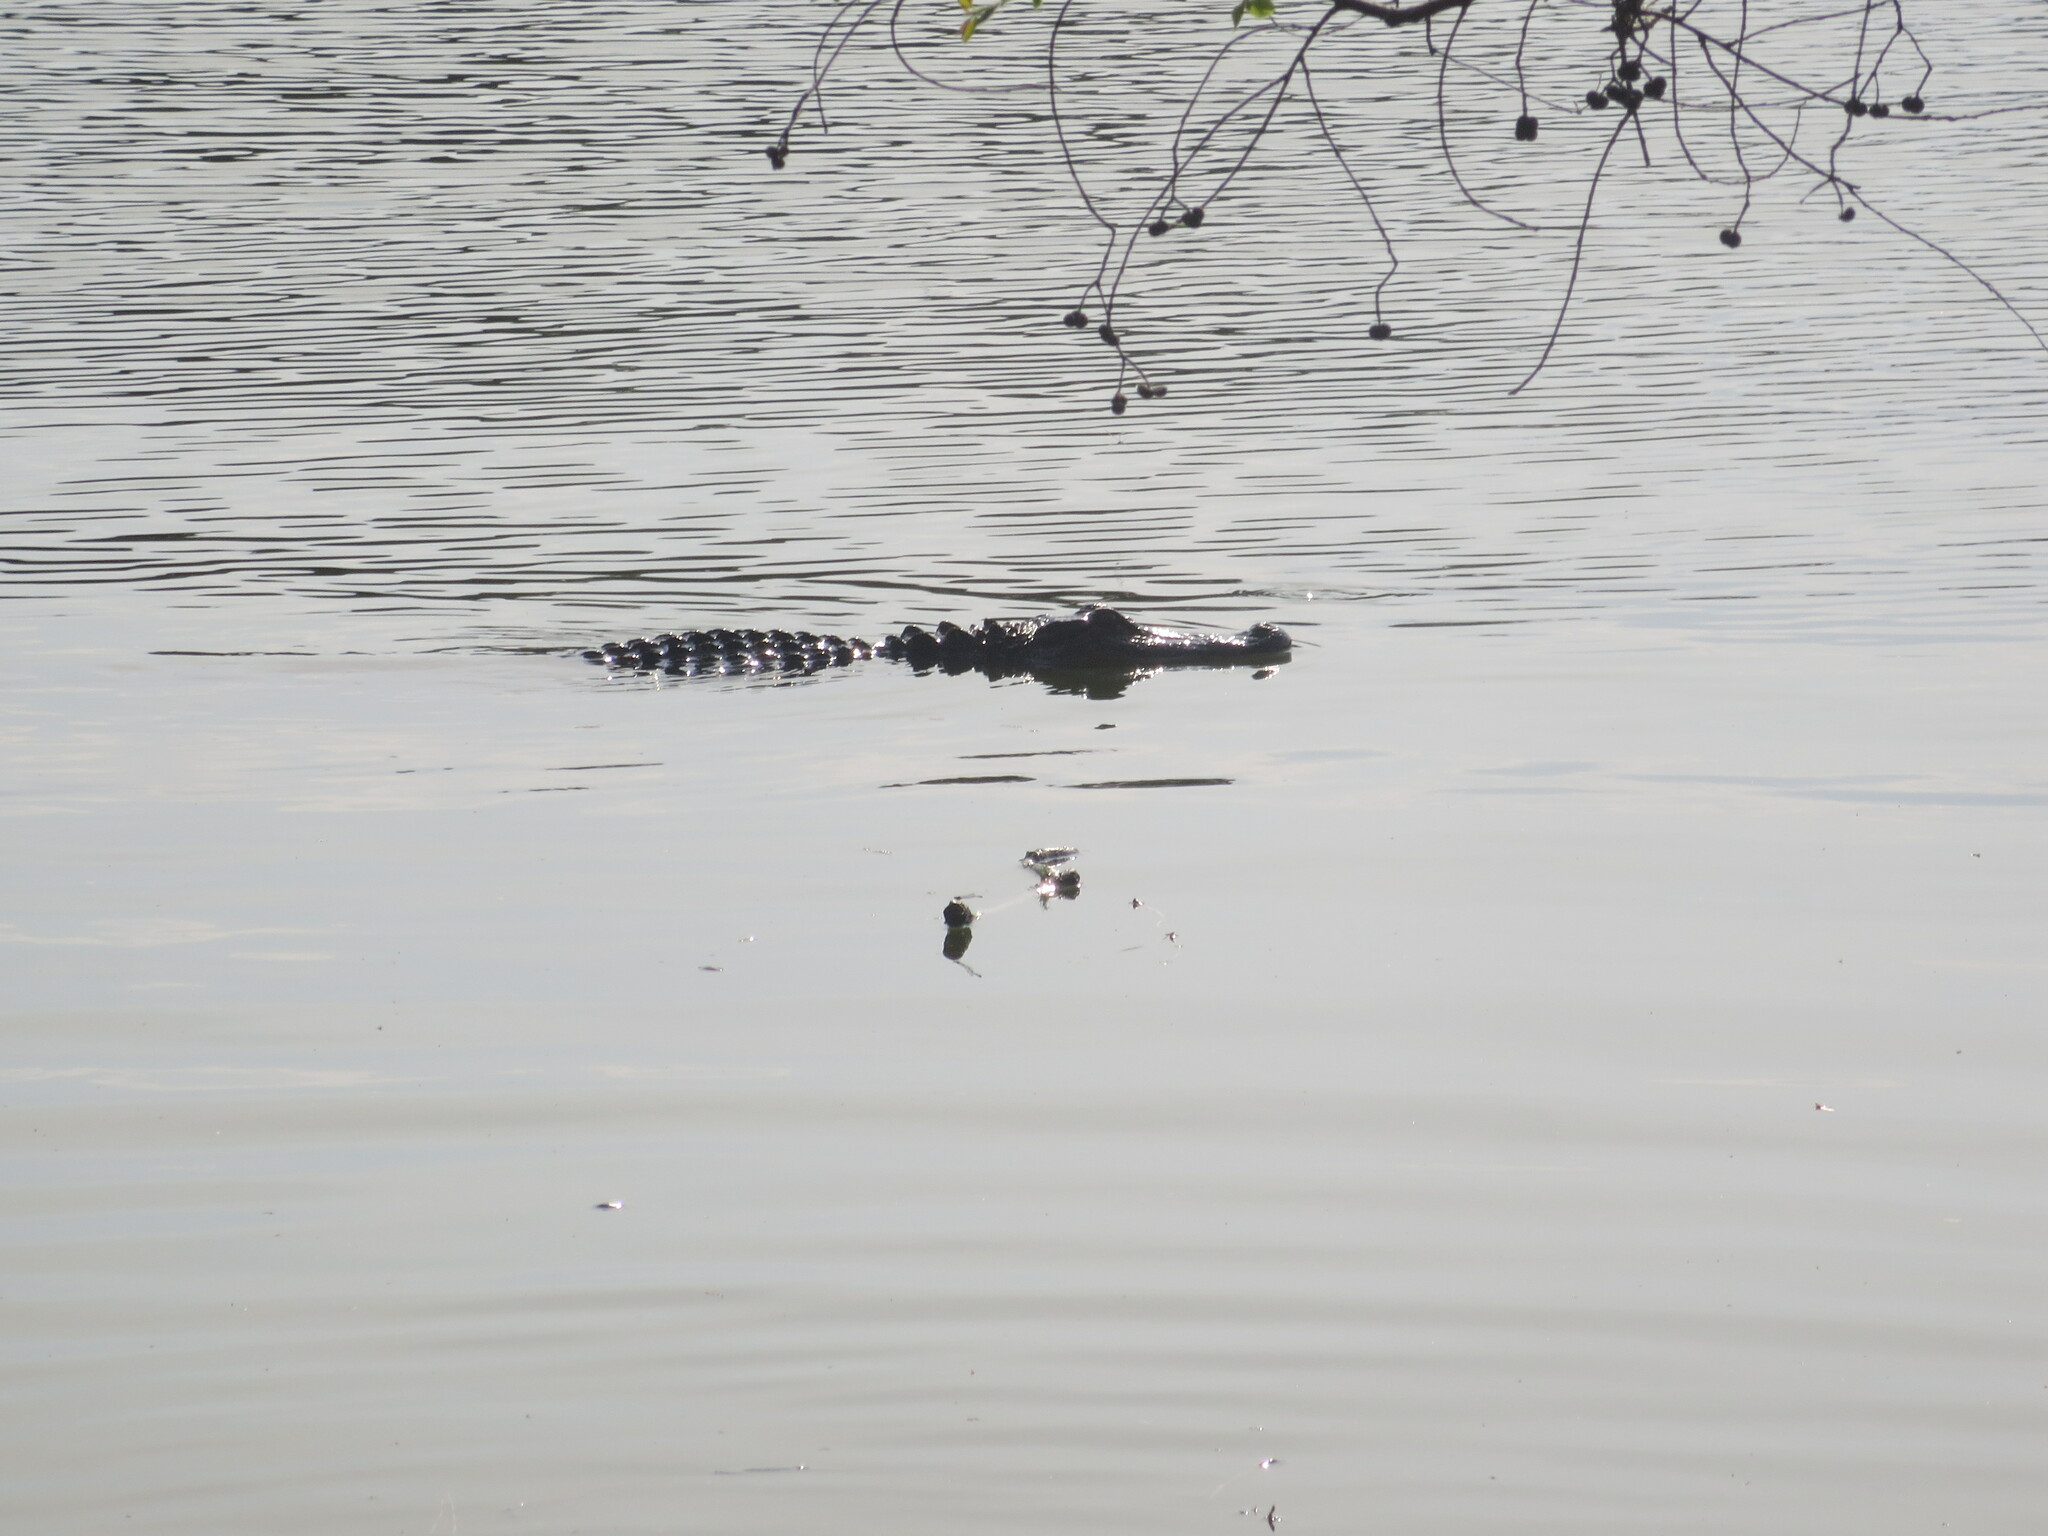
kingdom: Animalia
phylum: Chordata
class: Crocodylia
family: Alligatoridae
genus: Alligator
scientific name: Alligator mississippiensis
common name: American alligator
